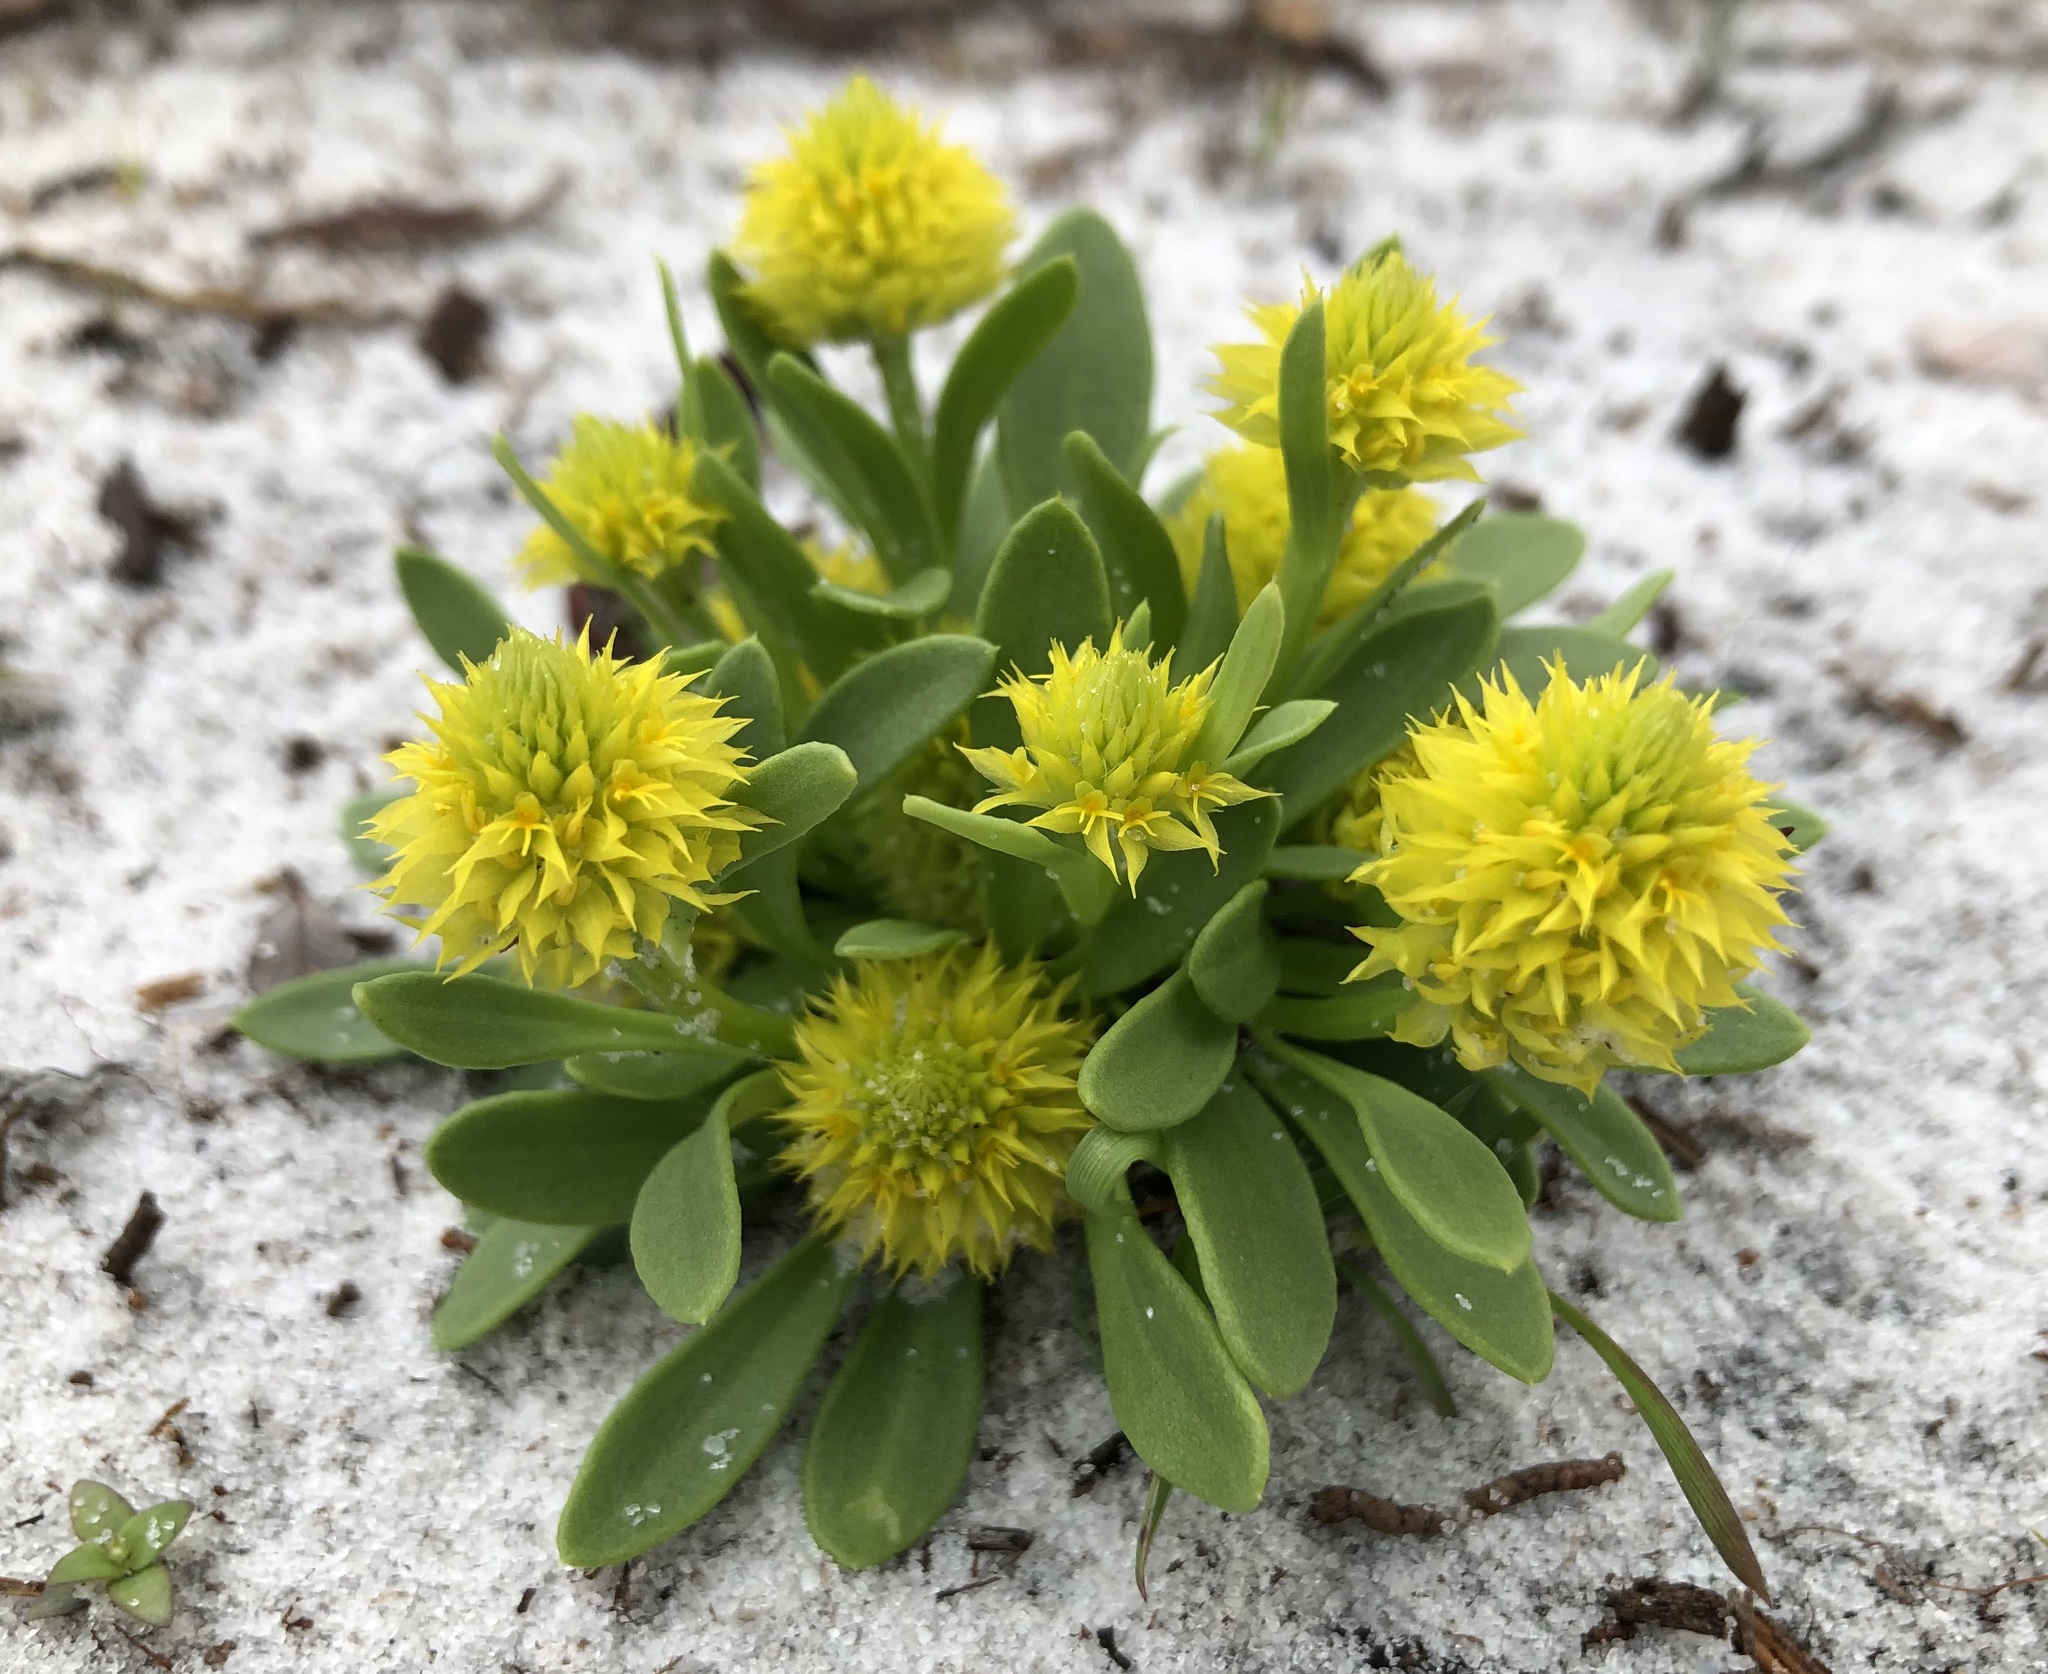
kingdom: Plantae
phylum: Tracheophyta
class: Magnoliopsida
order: Fabales
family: Polygalaceae
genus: Polygala
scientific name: Polygala nana
